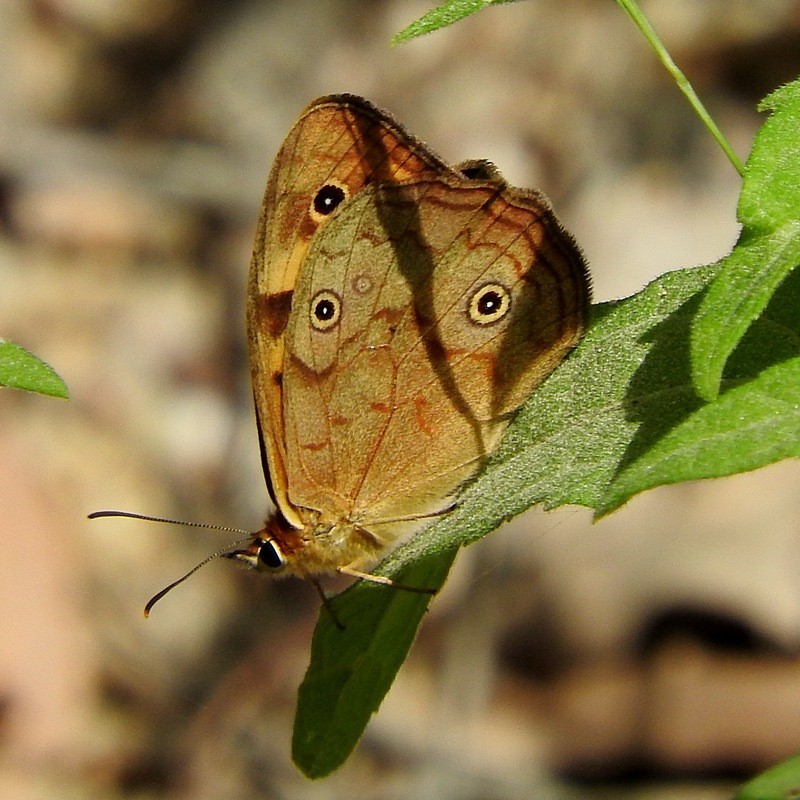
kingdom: Animalia
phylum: Arthropoda
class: Insecta
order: Lepidoptera
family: Nymphalidae
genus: Heteronympha
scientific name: Heteronympha paradelpha
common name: Spotted brown
